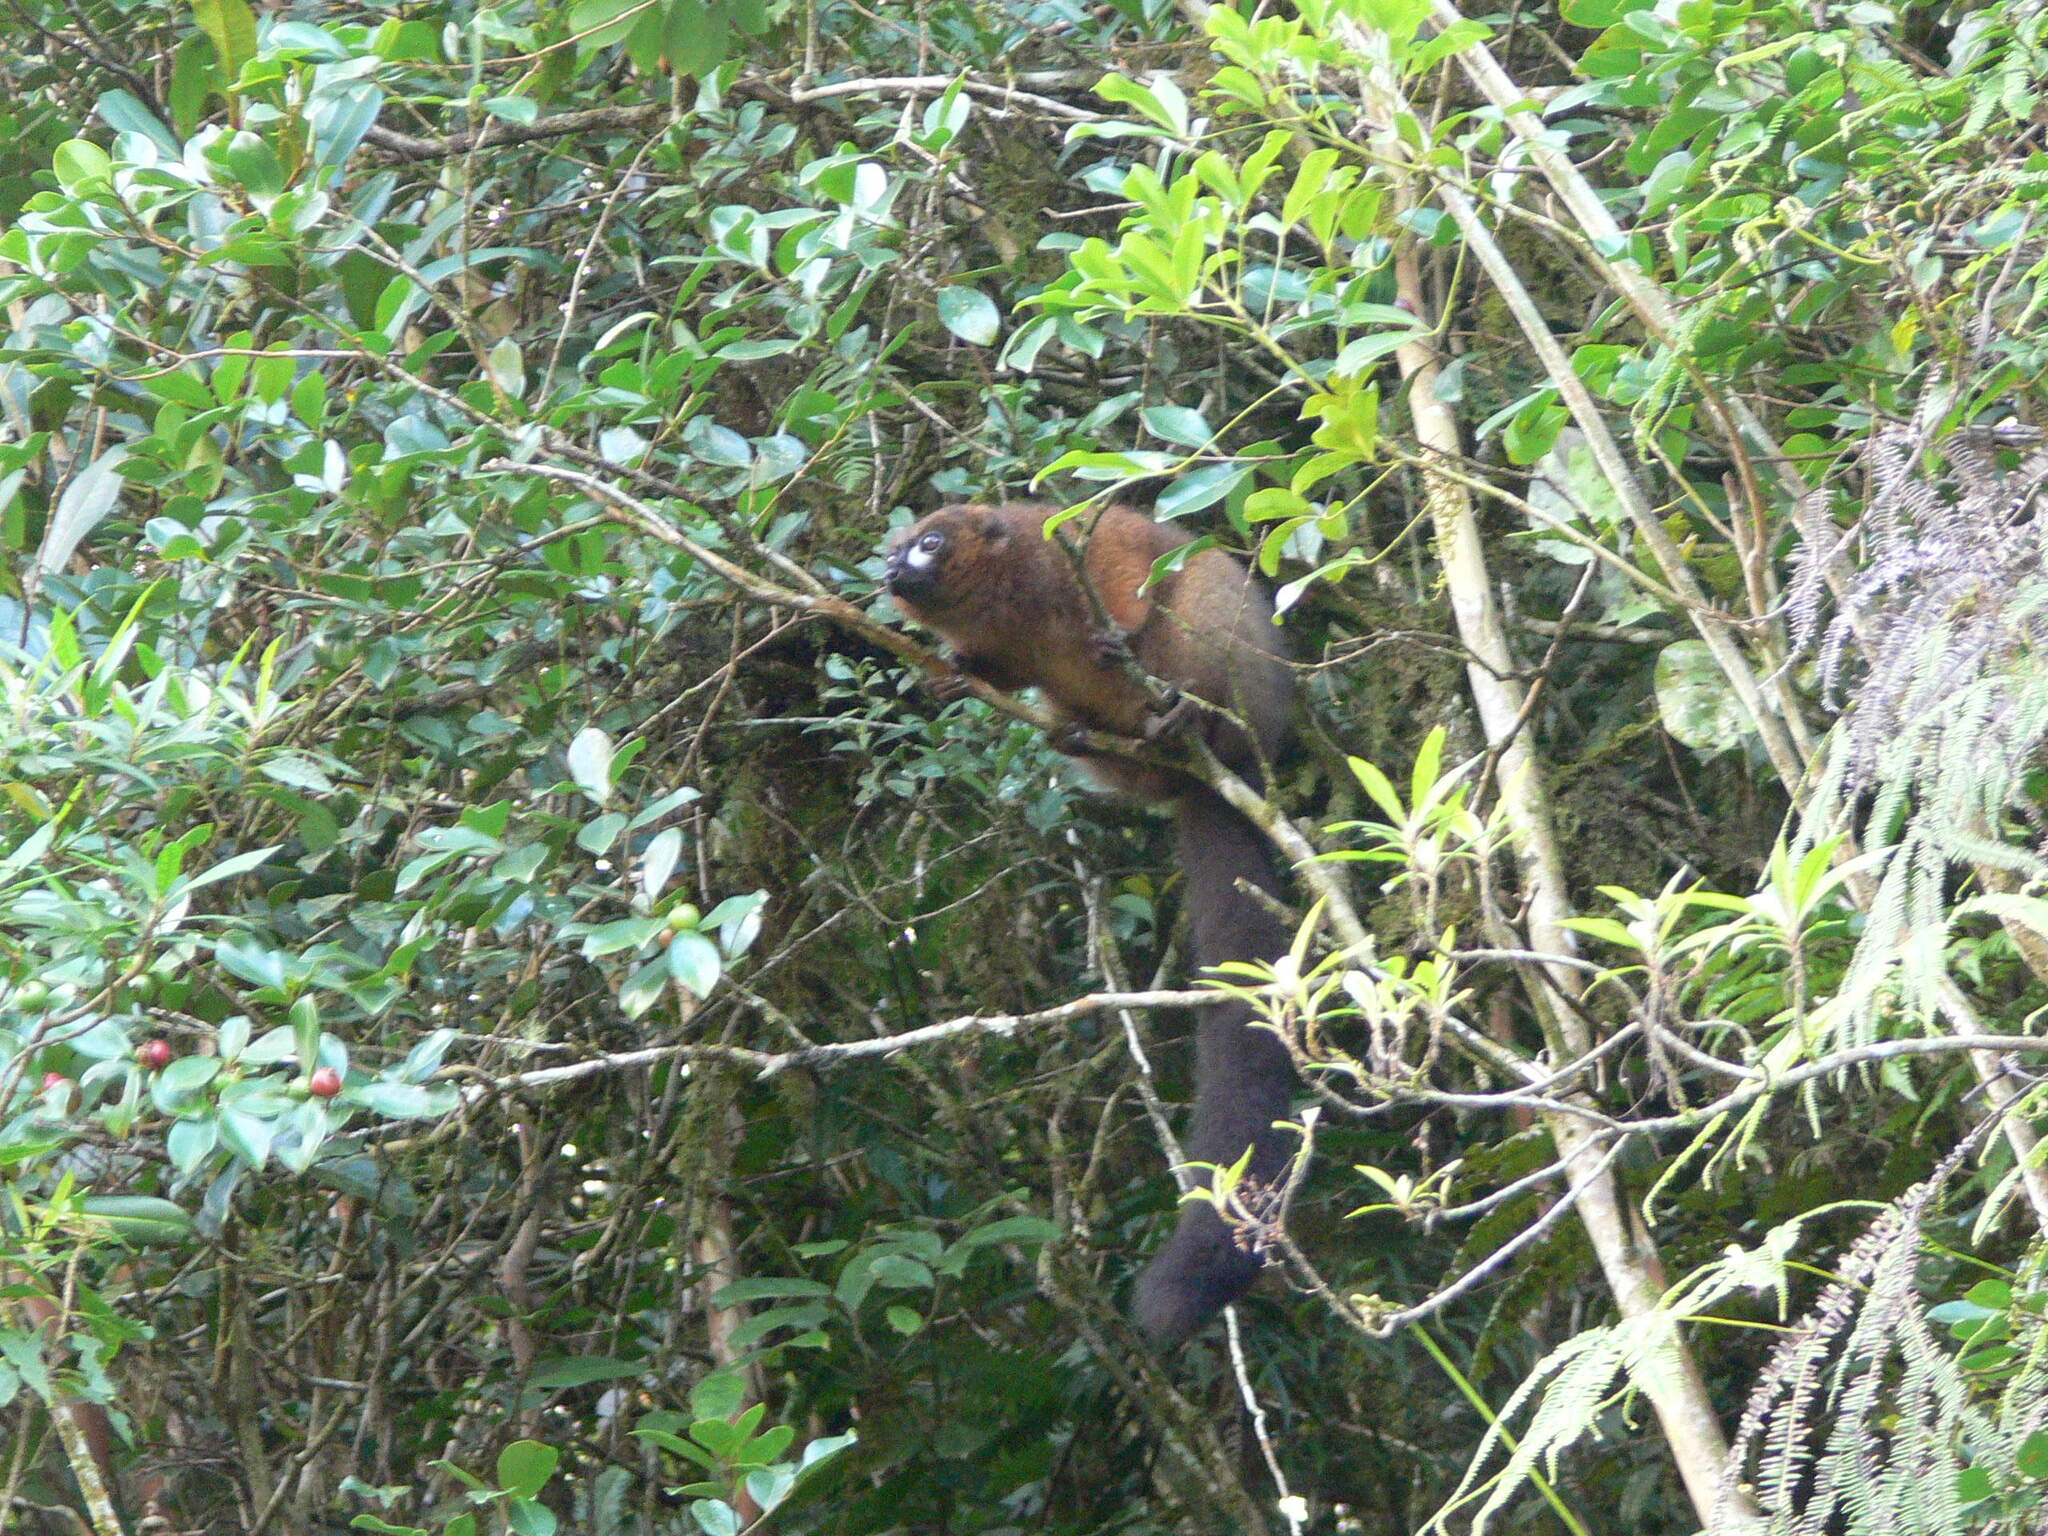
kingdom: Animalia
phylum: Chordata
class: Mammalia
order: Primates
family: Lemuridae
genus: Eulemur
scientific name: Eulemur rubriventer
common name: Red-bellied lemur
